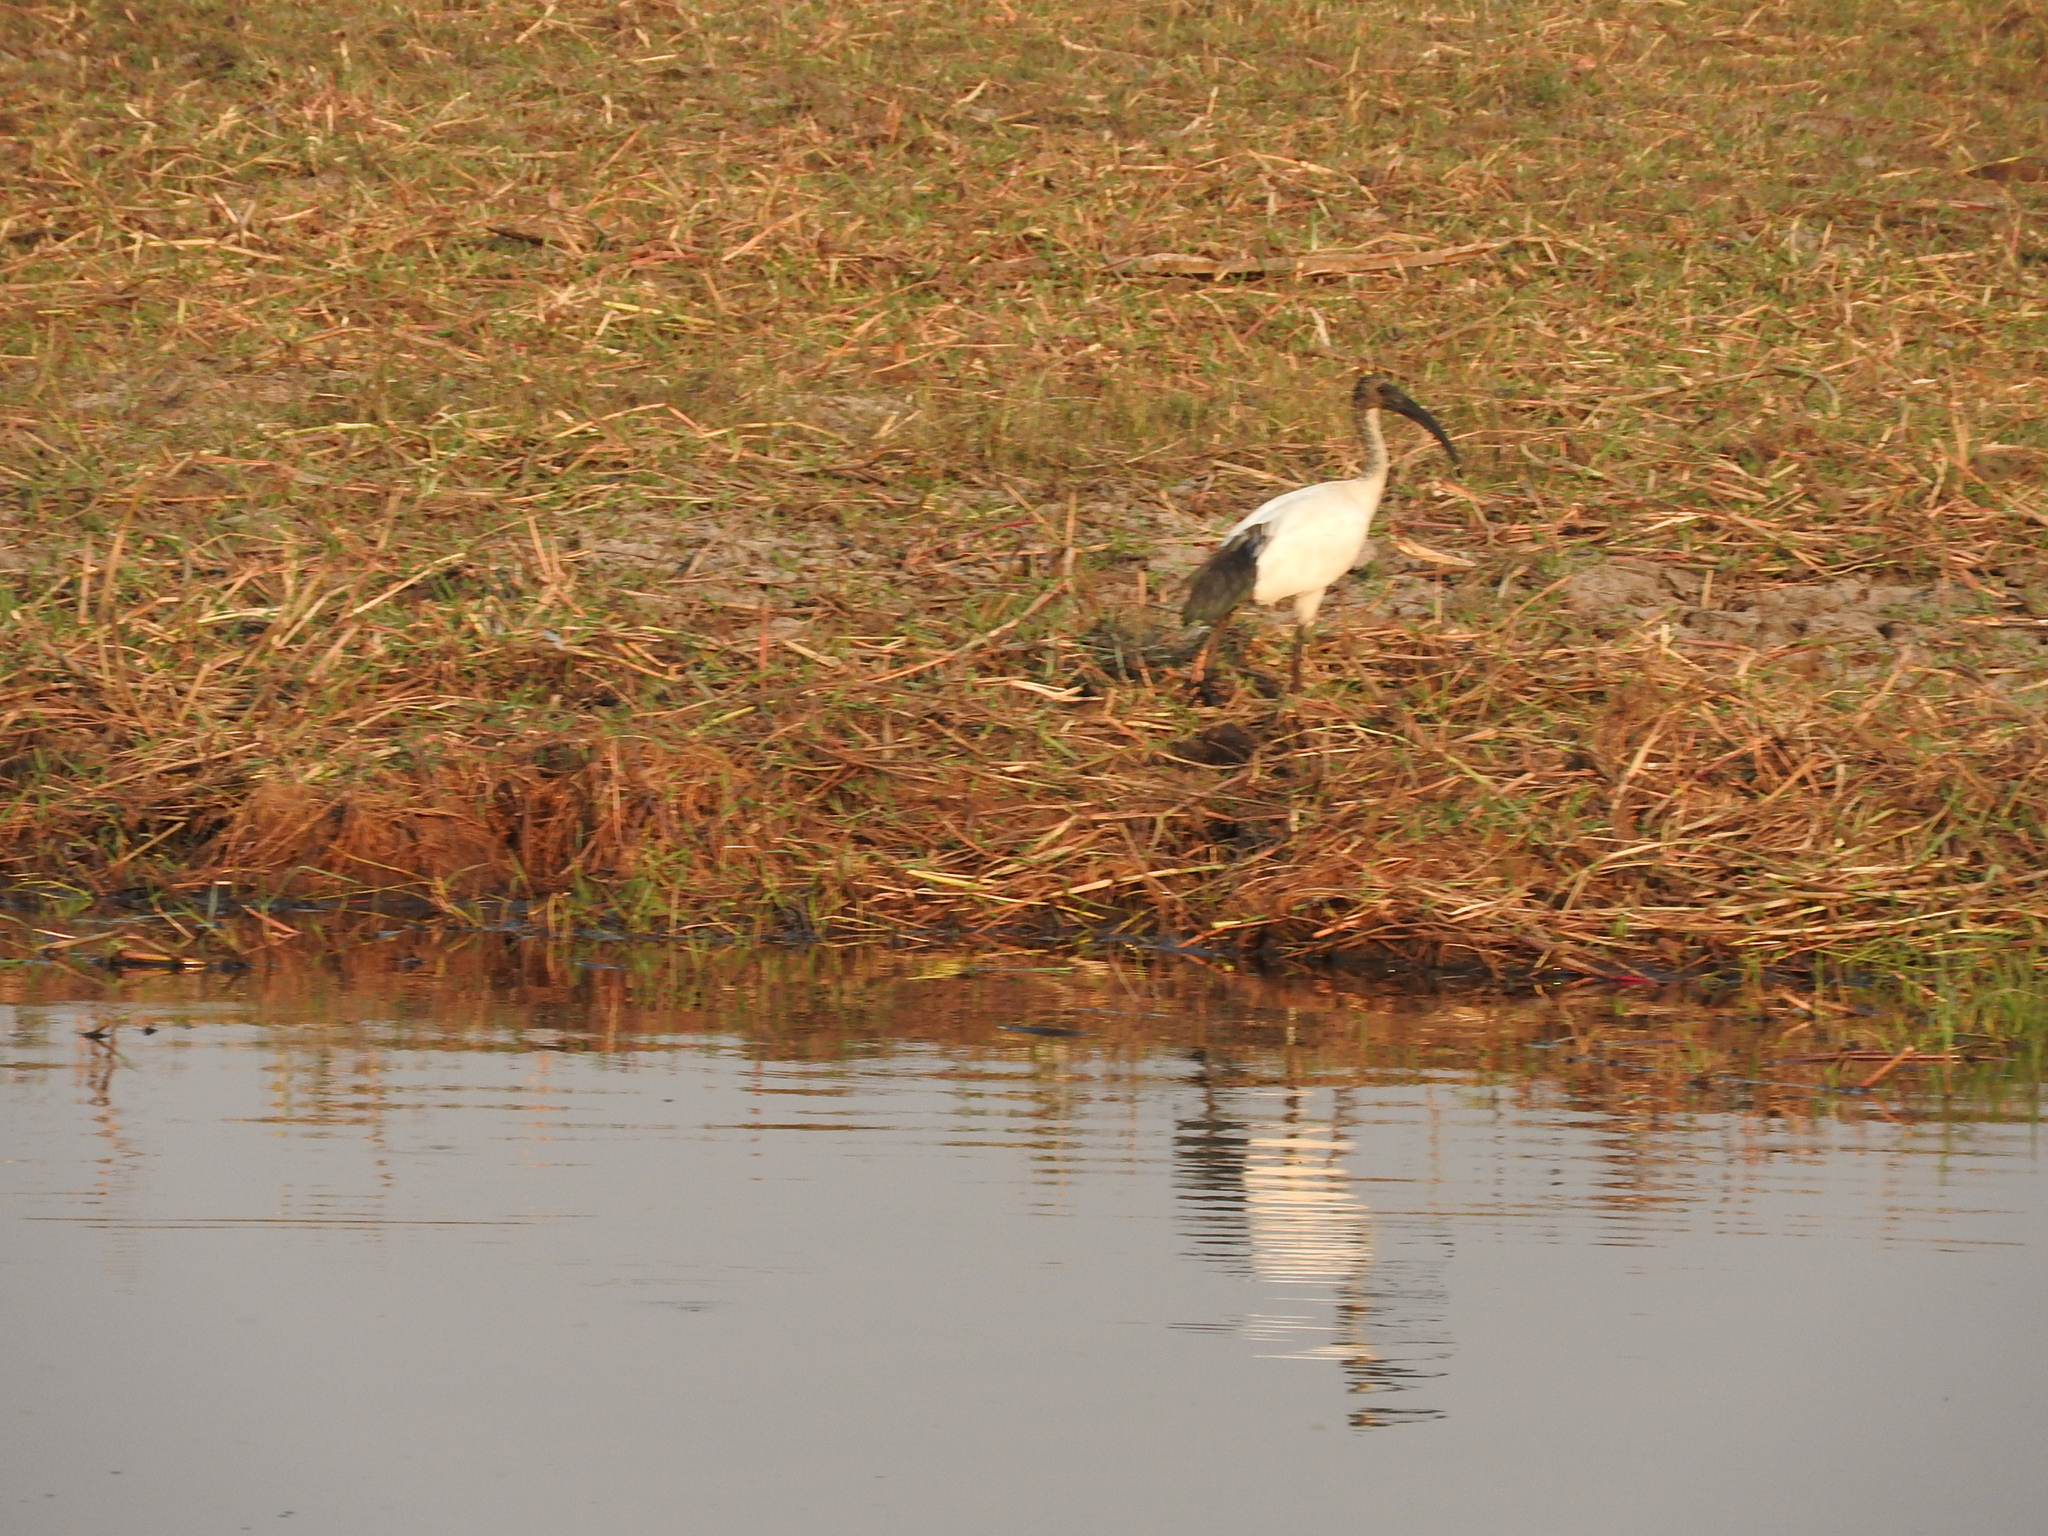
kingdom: Animalia
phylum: Chordata
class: Aves
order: Pelecaniformes
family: Threskiornithidae
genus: Threskiornis
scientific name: Threskiornis aethiopicus
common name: Sacred ibis
